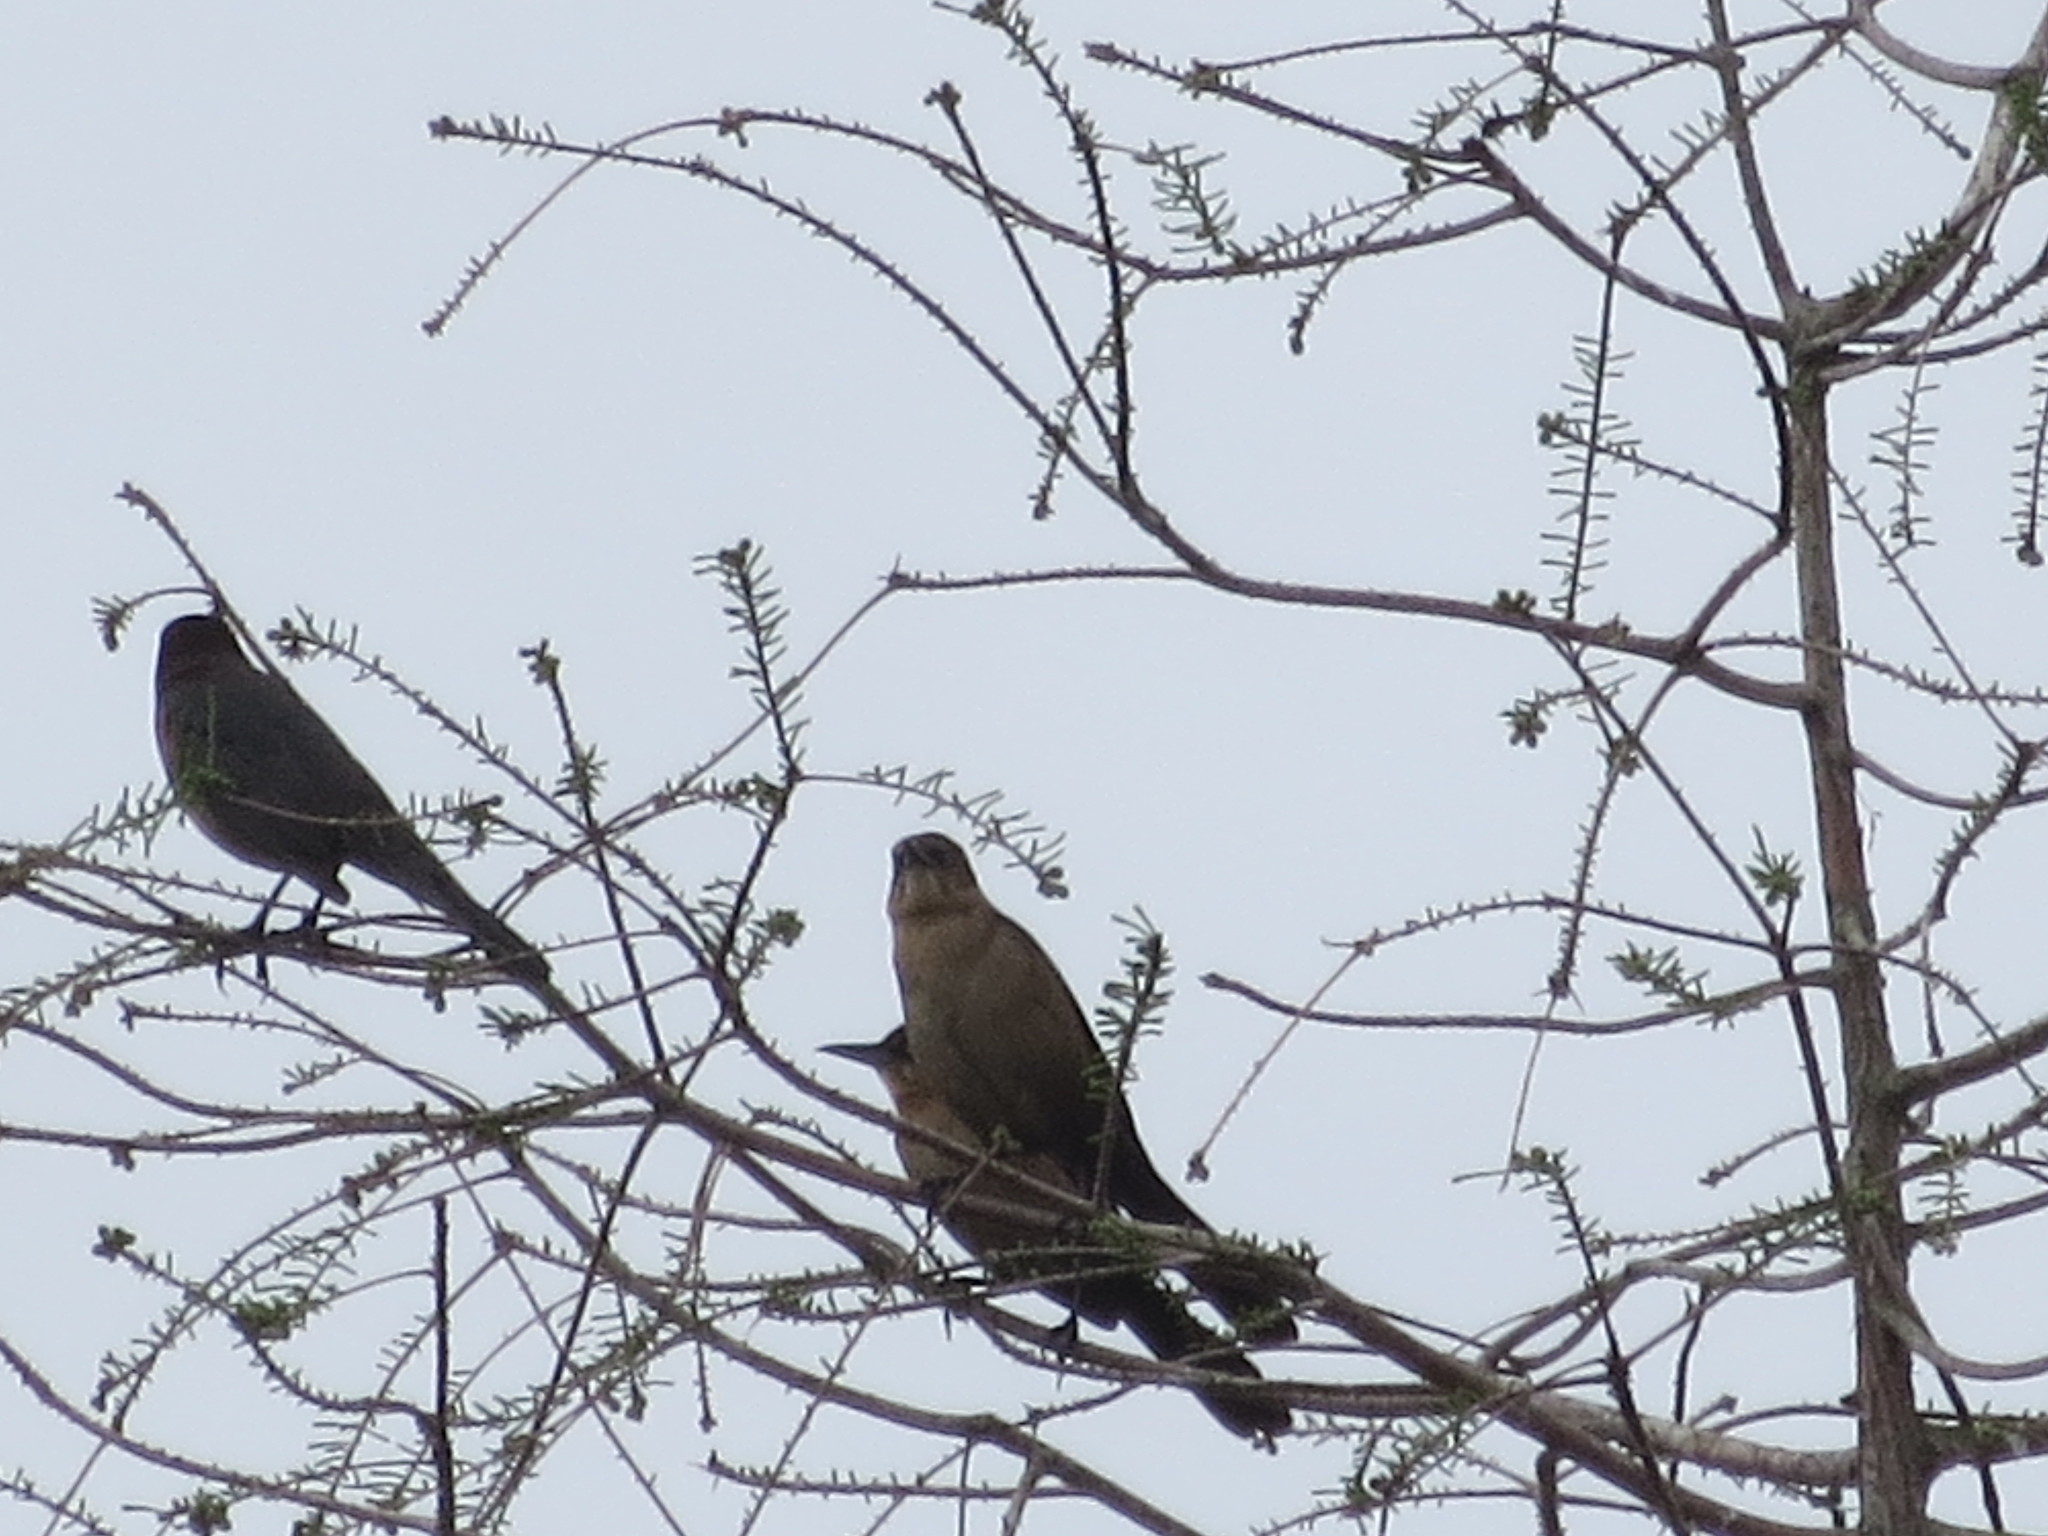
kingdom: Animalia
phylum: Chordata
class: Aves
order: Passeriformes
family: Icteridae
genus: Quiscalus
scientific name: Quiscalus major
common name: Boat-tailed grackle
